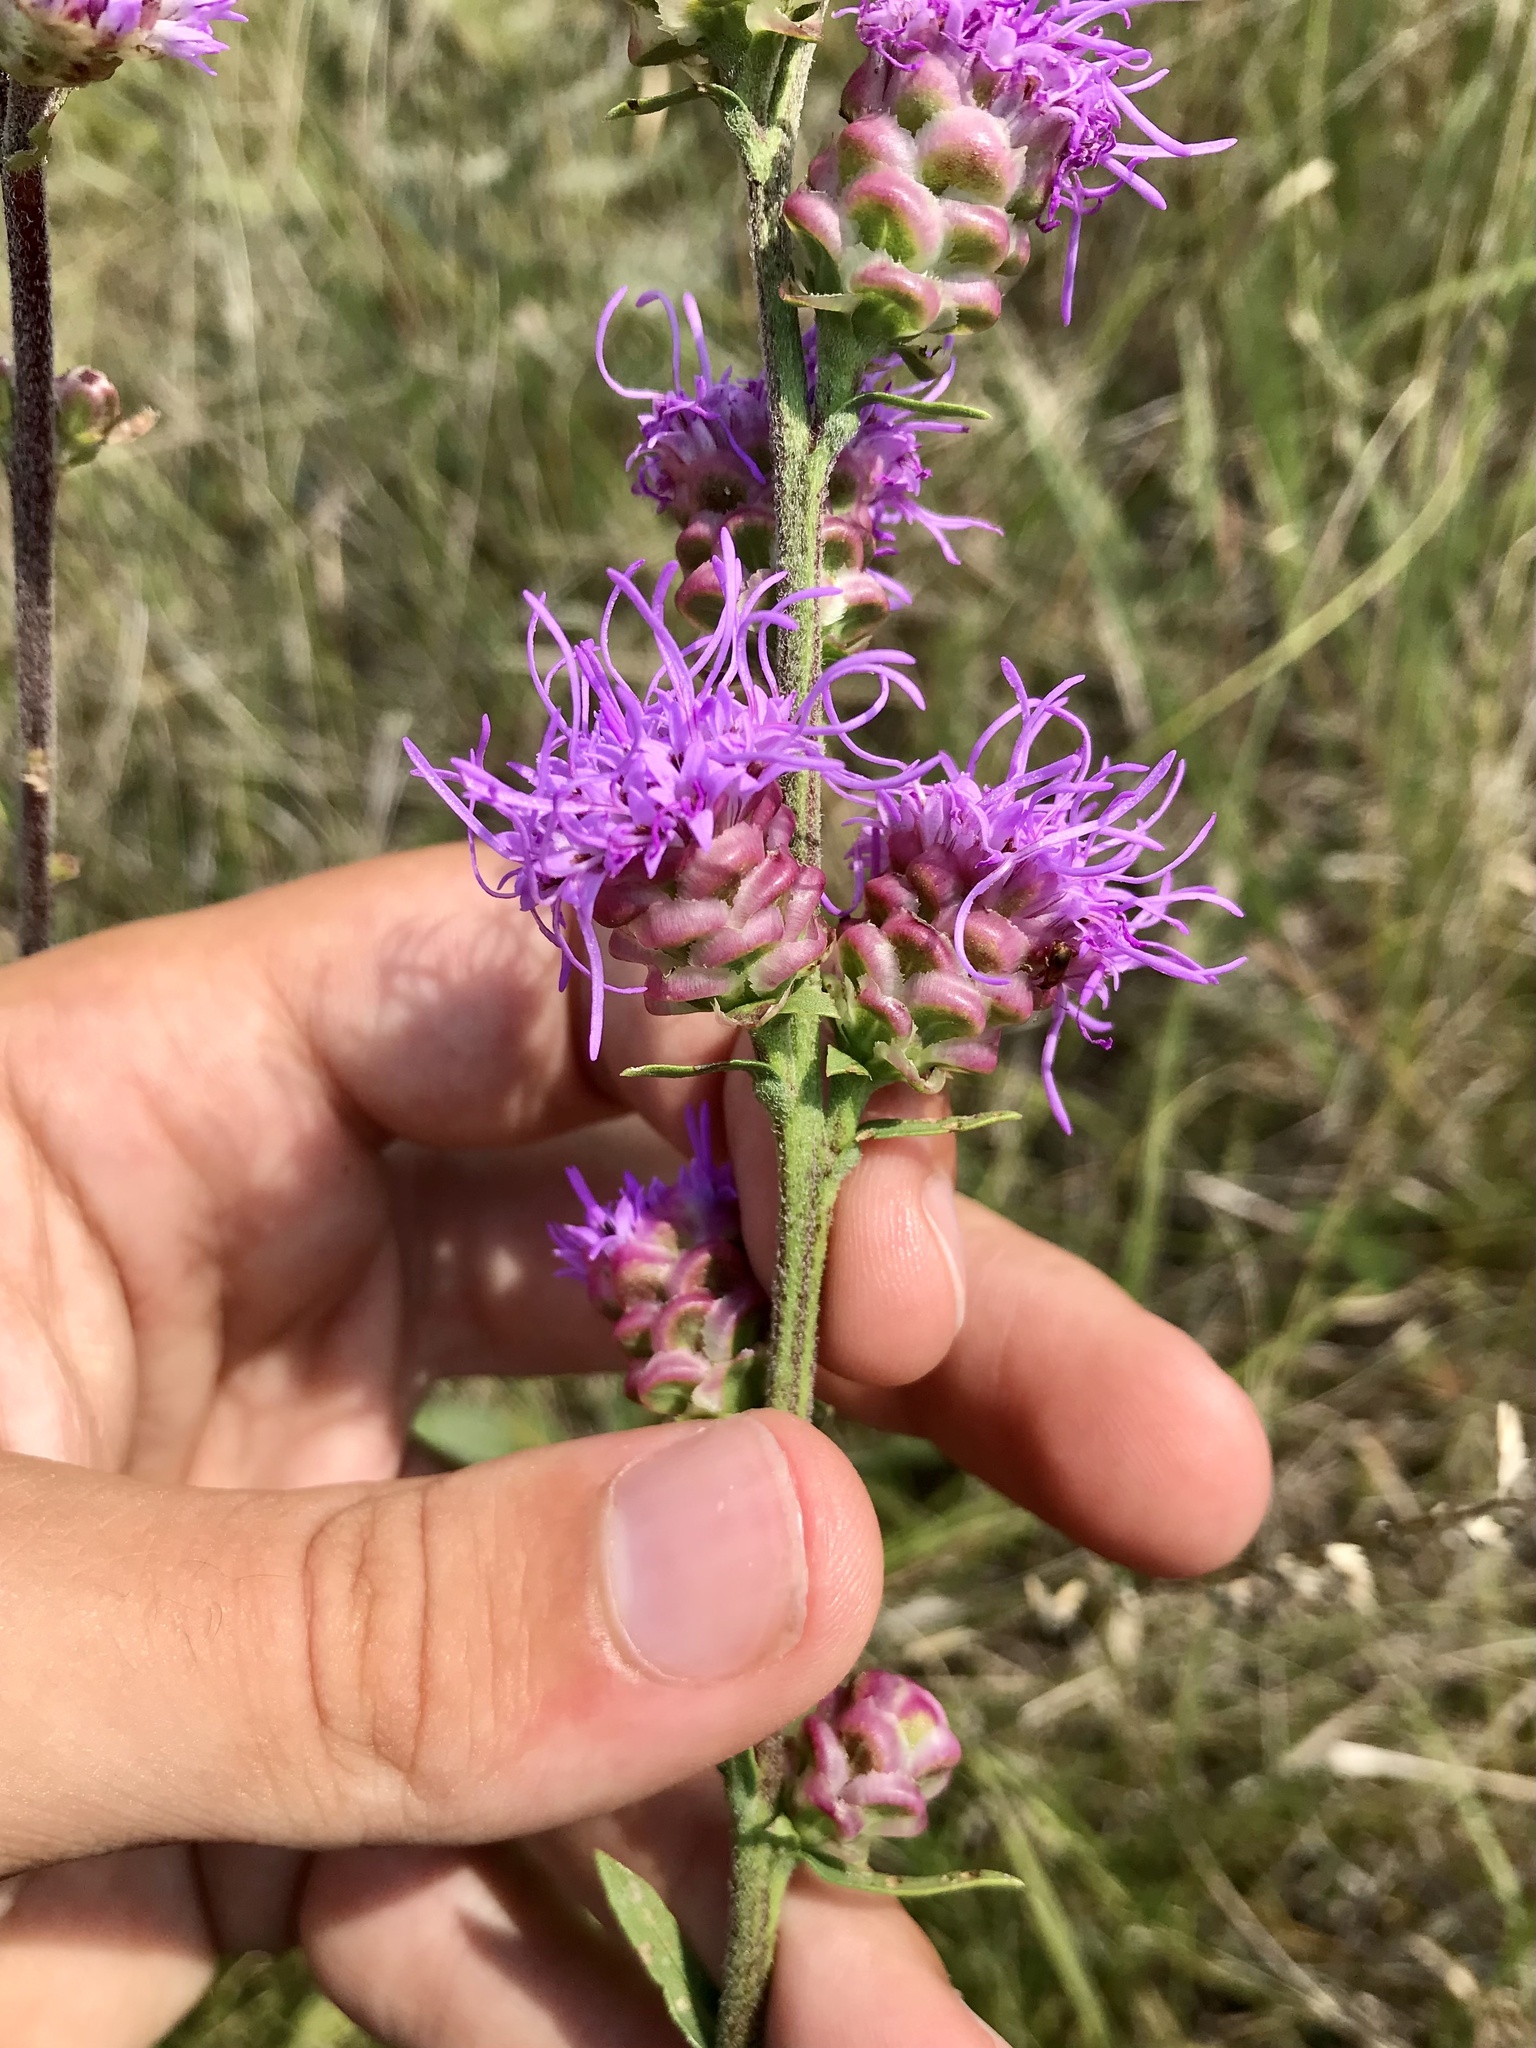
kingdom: Plantae
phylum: Tracheophyta
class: Magnoliopsida
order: Asterales
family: Asteraceae
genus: Liatris
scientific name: Liatris aspera
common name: Lacerate blazing-star
